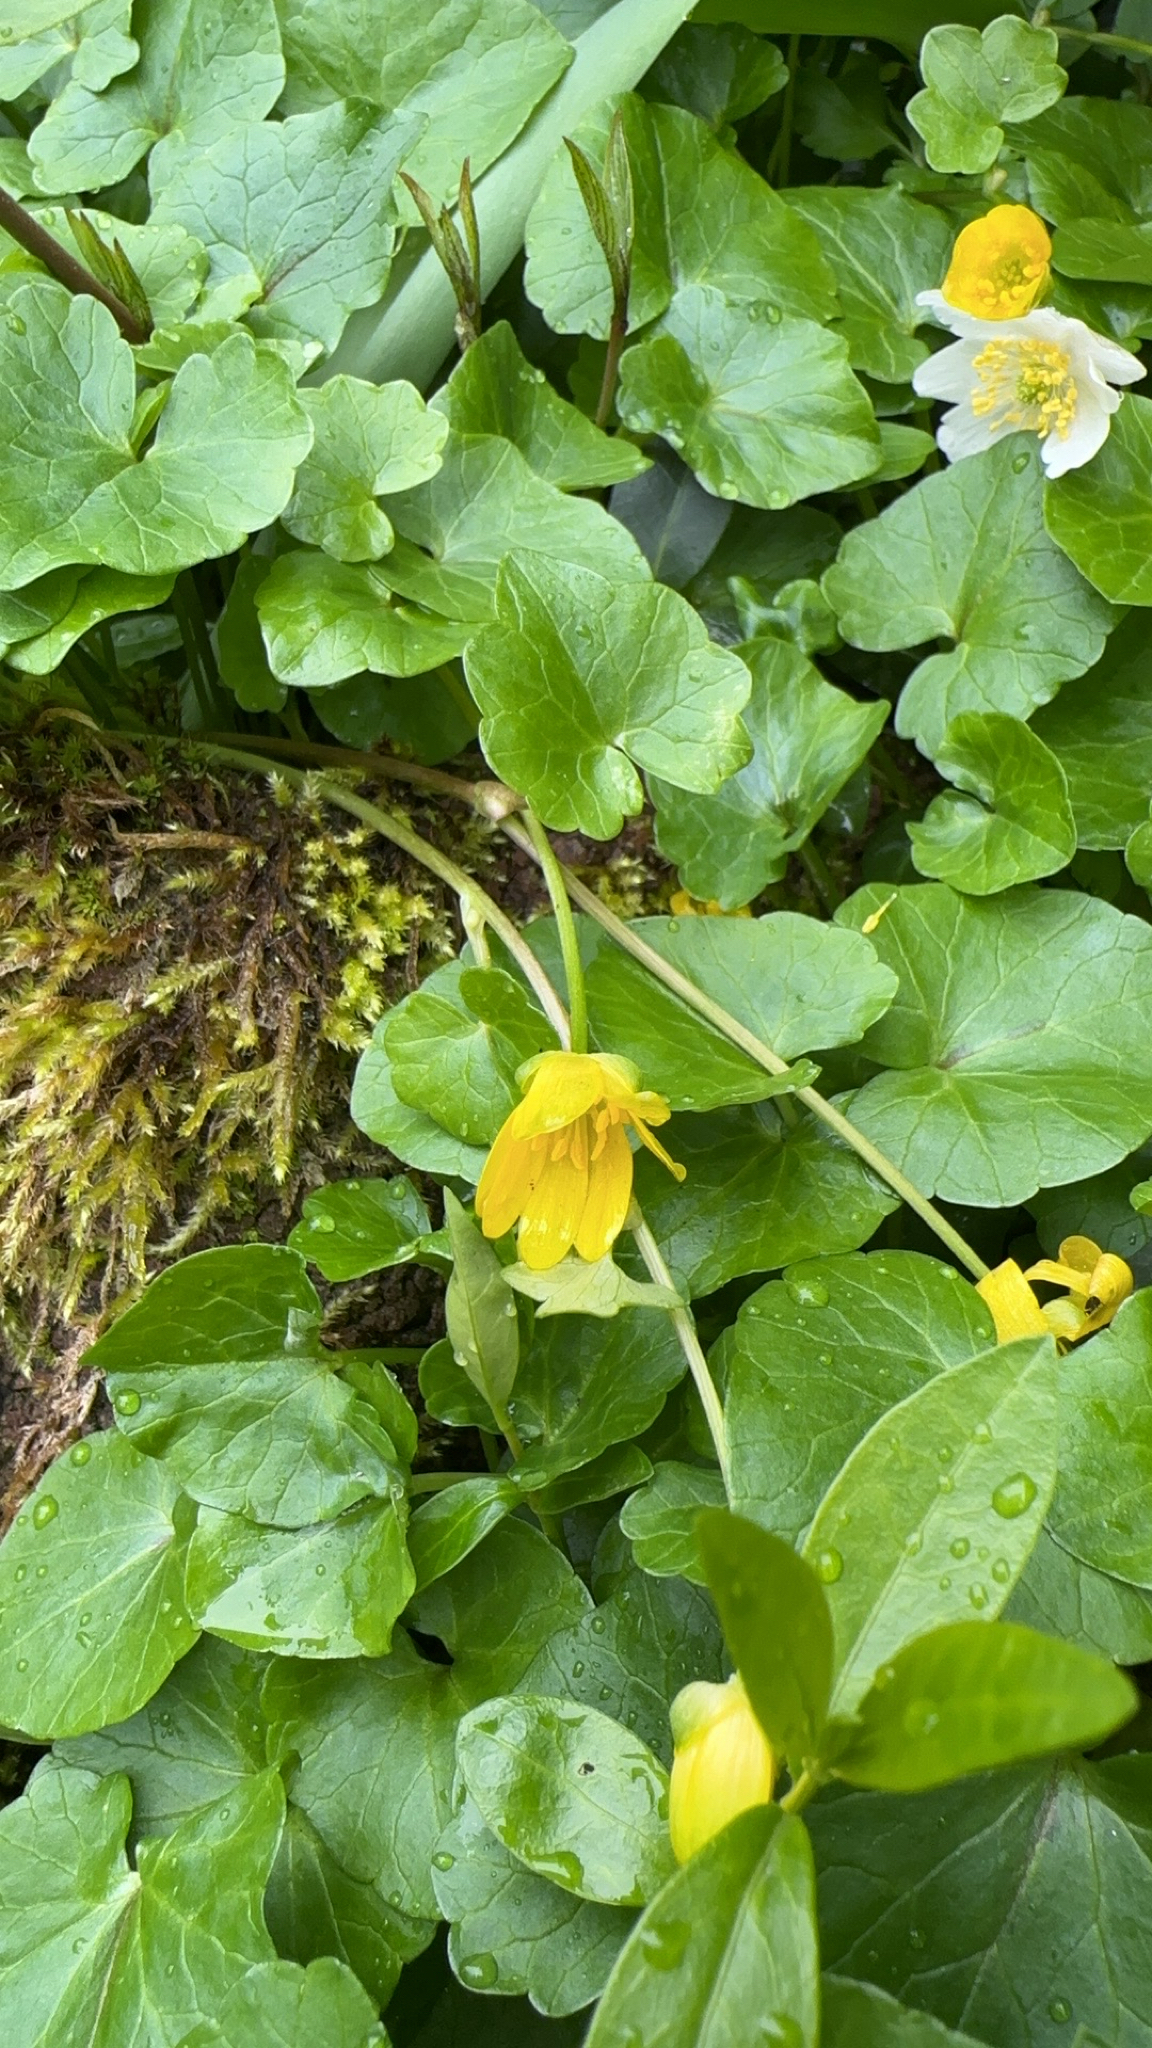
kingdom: Plantae
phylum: Tracheophyta
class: Magnoliopsida
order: Ranunculales
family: Ranunculaceae
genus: Ficaria
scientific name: Ficaria verna
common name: Lesser celandine
